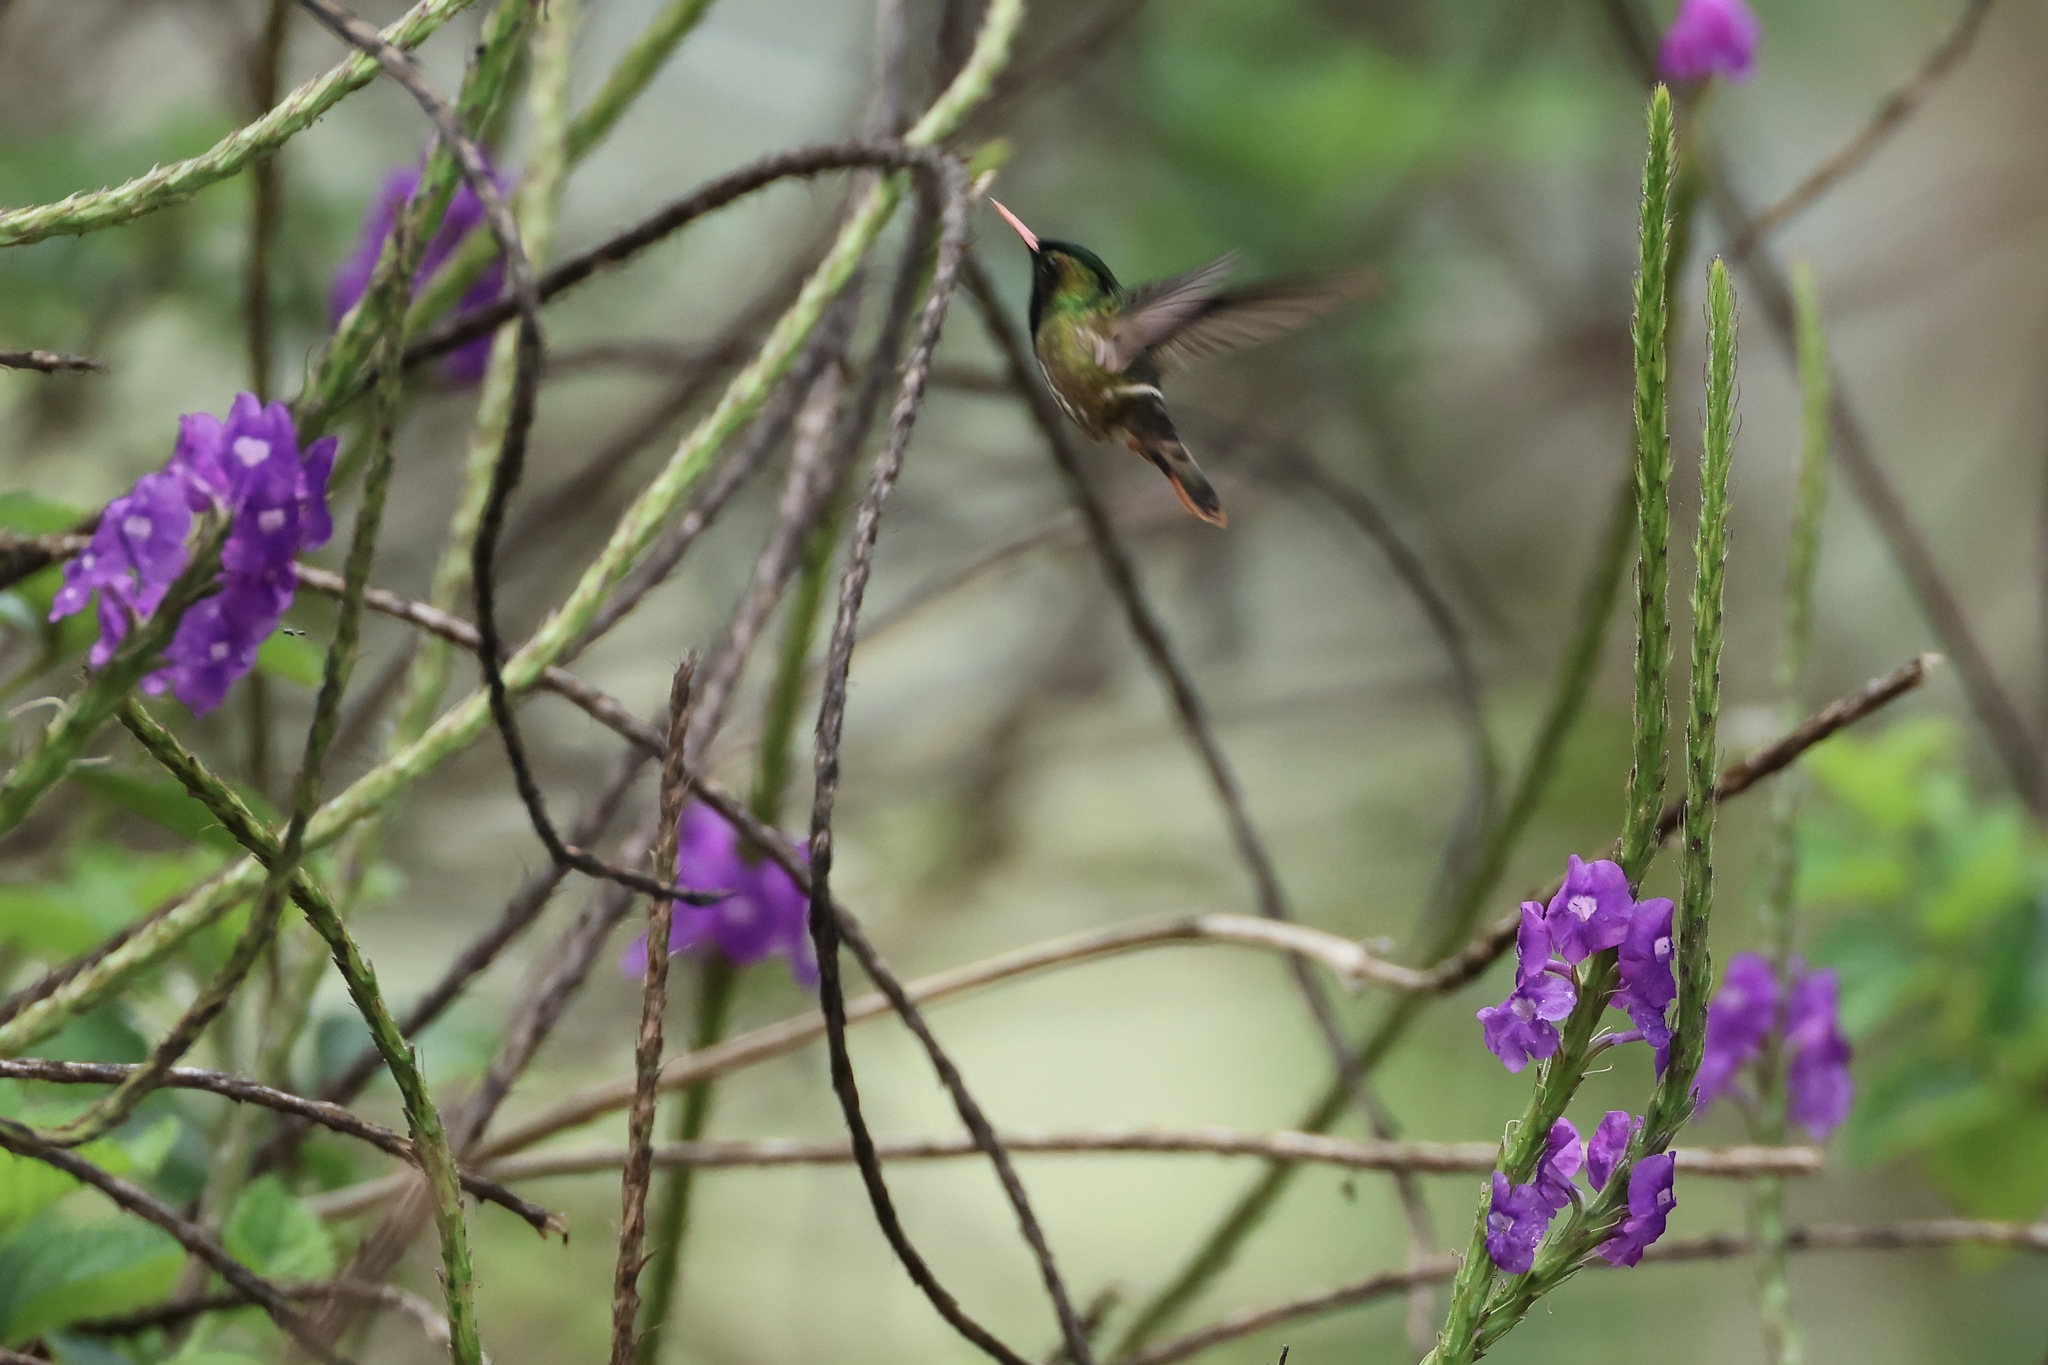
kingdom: Animalia
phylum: Chordata
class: Aves
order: Apodiformes
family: Trochilidae
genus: Lophornis
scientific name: Lophornis helenae
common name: Black-crested coquette
